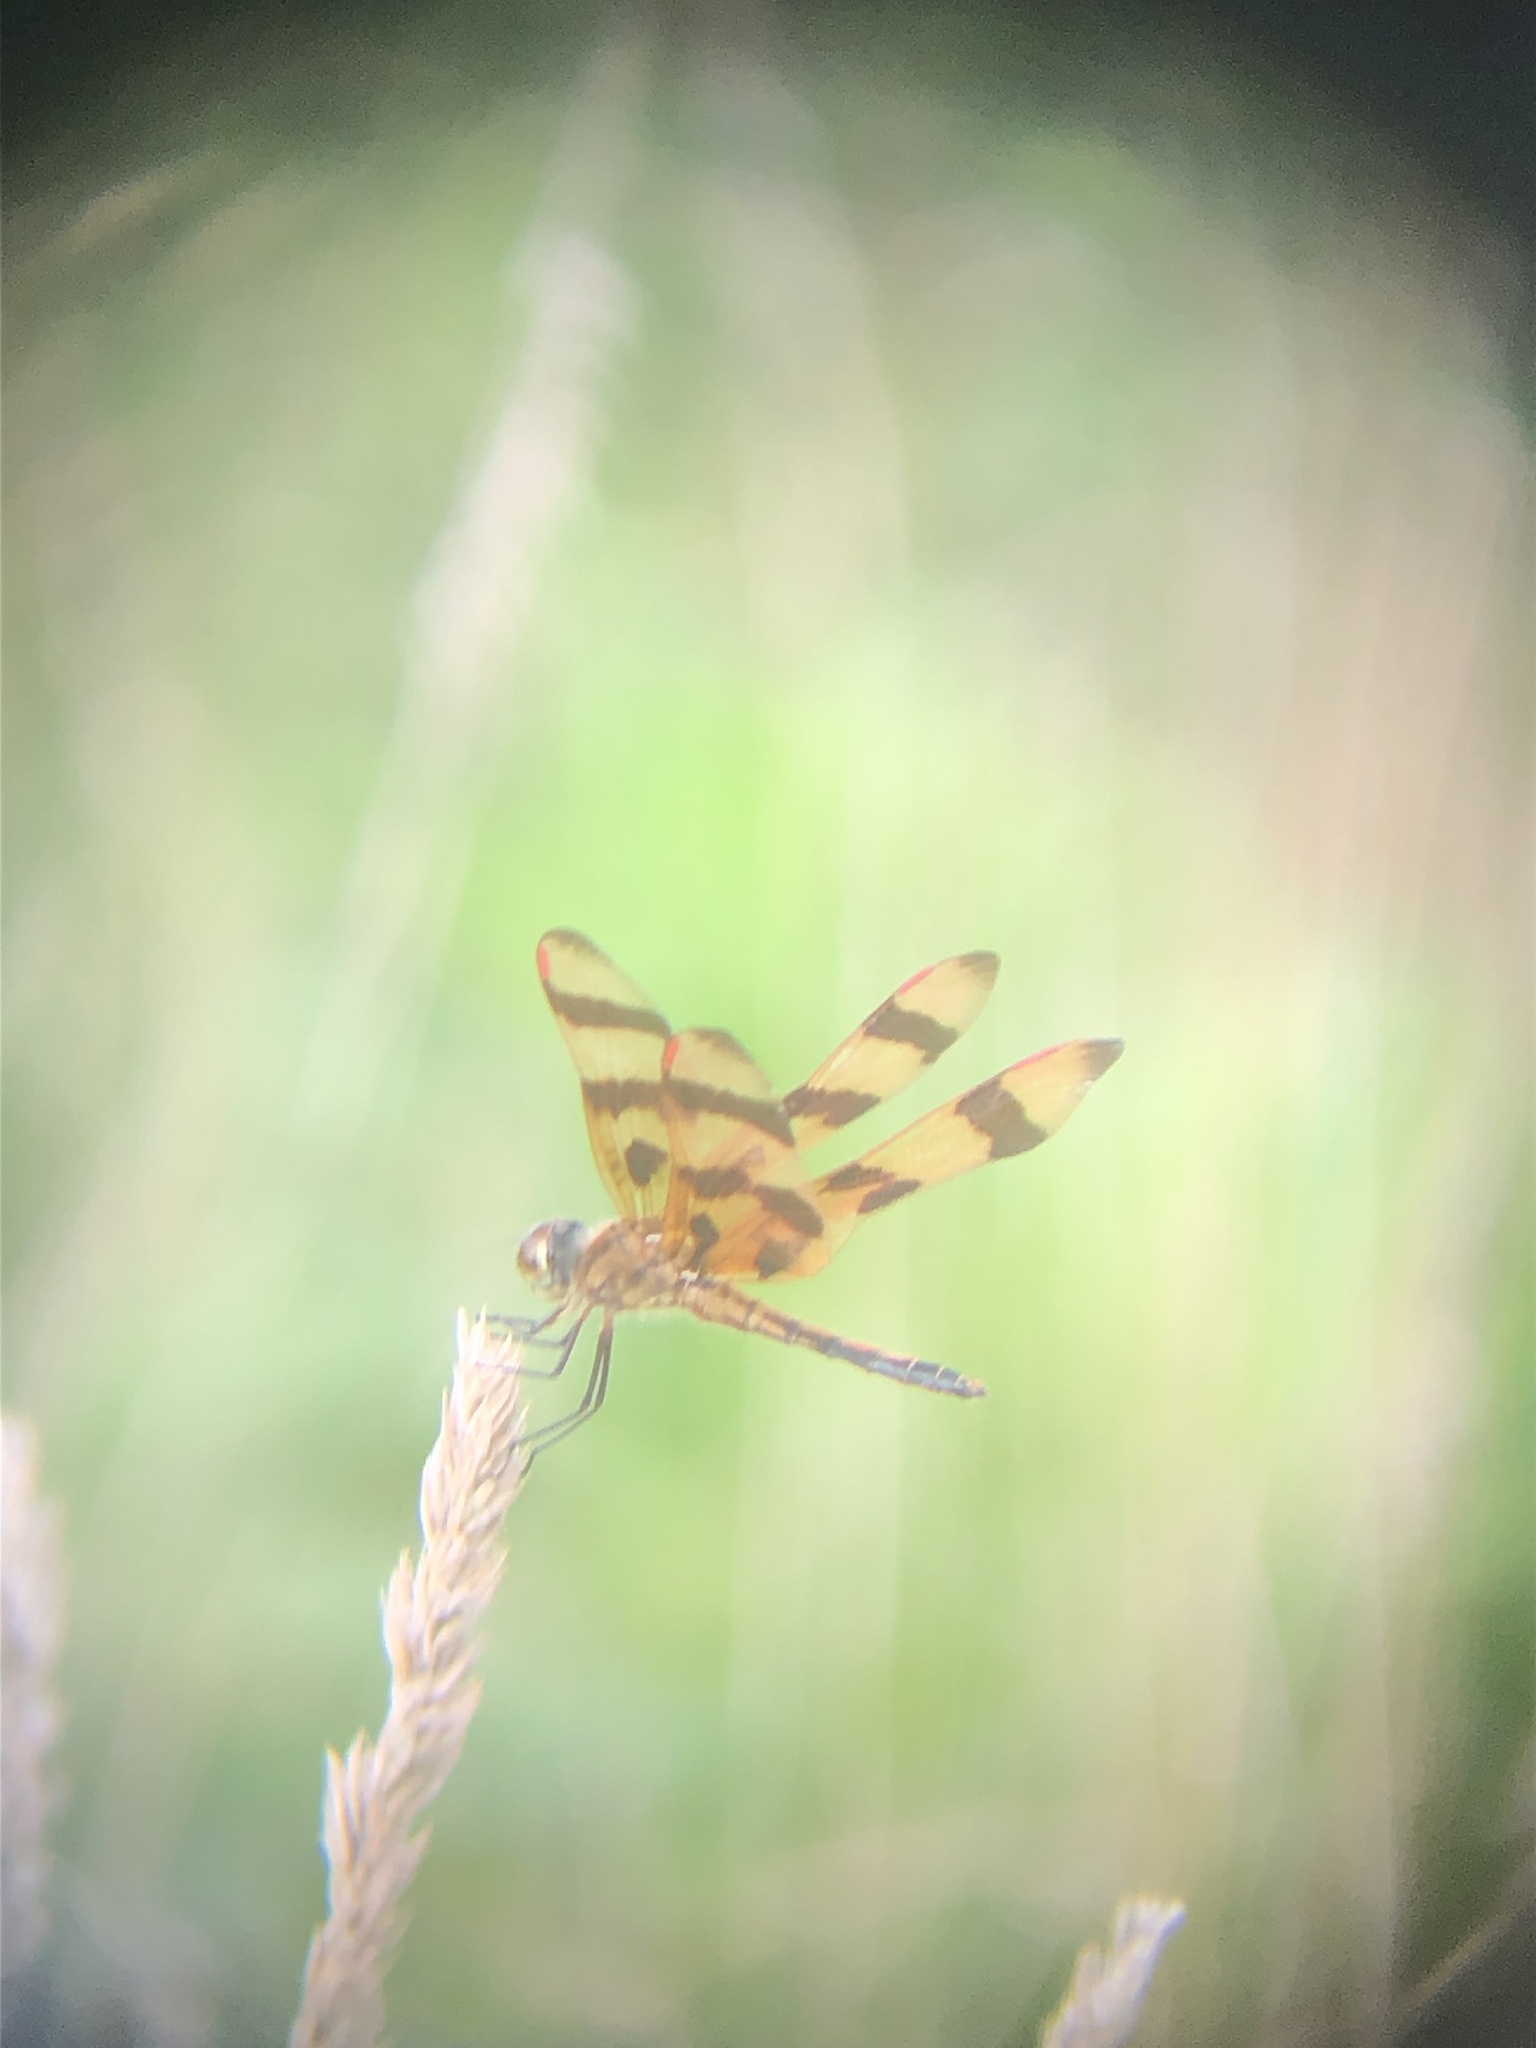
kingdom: Animalia
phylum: Arthropoda
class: Insecta
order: Odonata
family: Libellulidae
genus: Celithemis
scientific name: Celithemis eponina
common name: Halloween pennant
